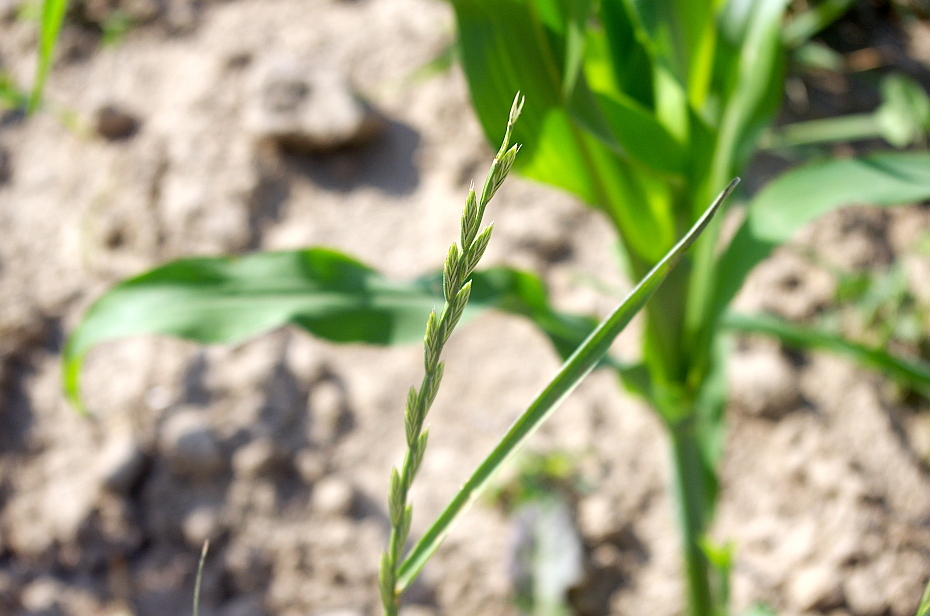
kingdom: Plantae
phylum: Tracheophyta
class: Liliopsida
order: Poales
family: Poaceae
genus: Lolium
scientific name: Lolium perenne
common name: Perennial ryegrass
